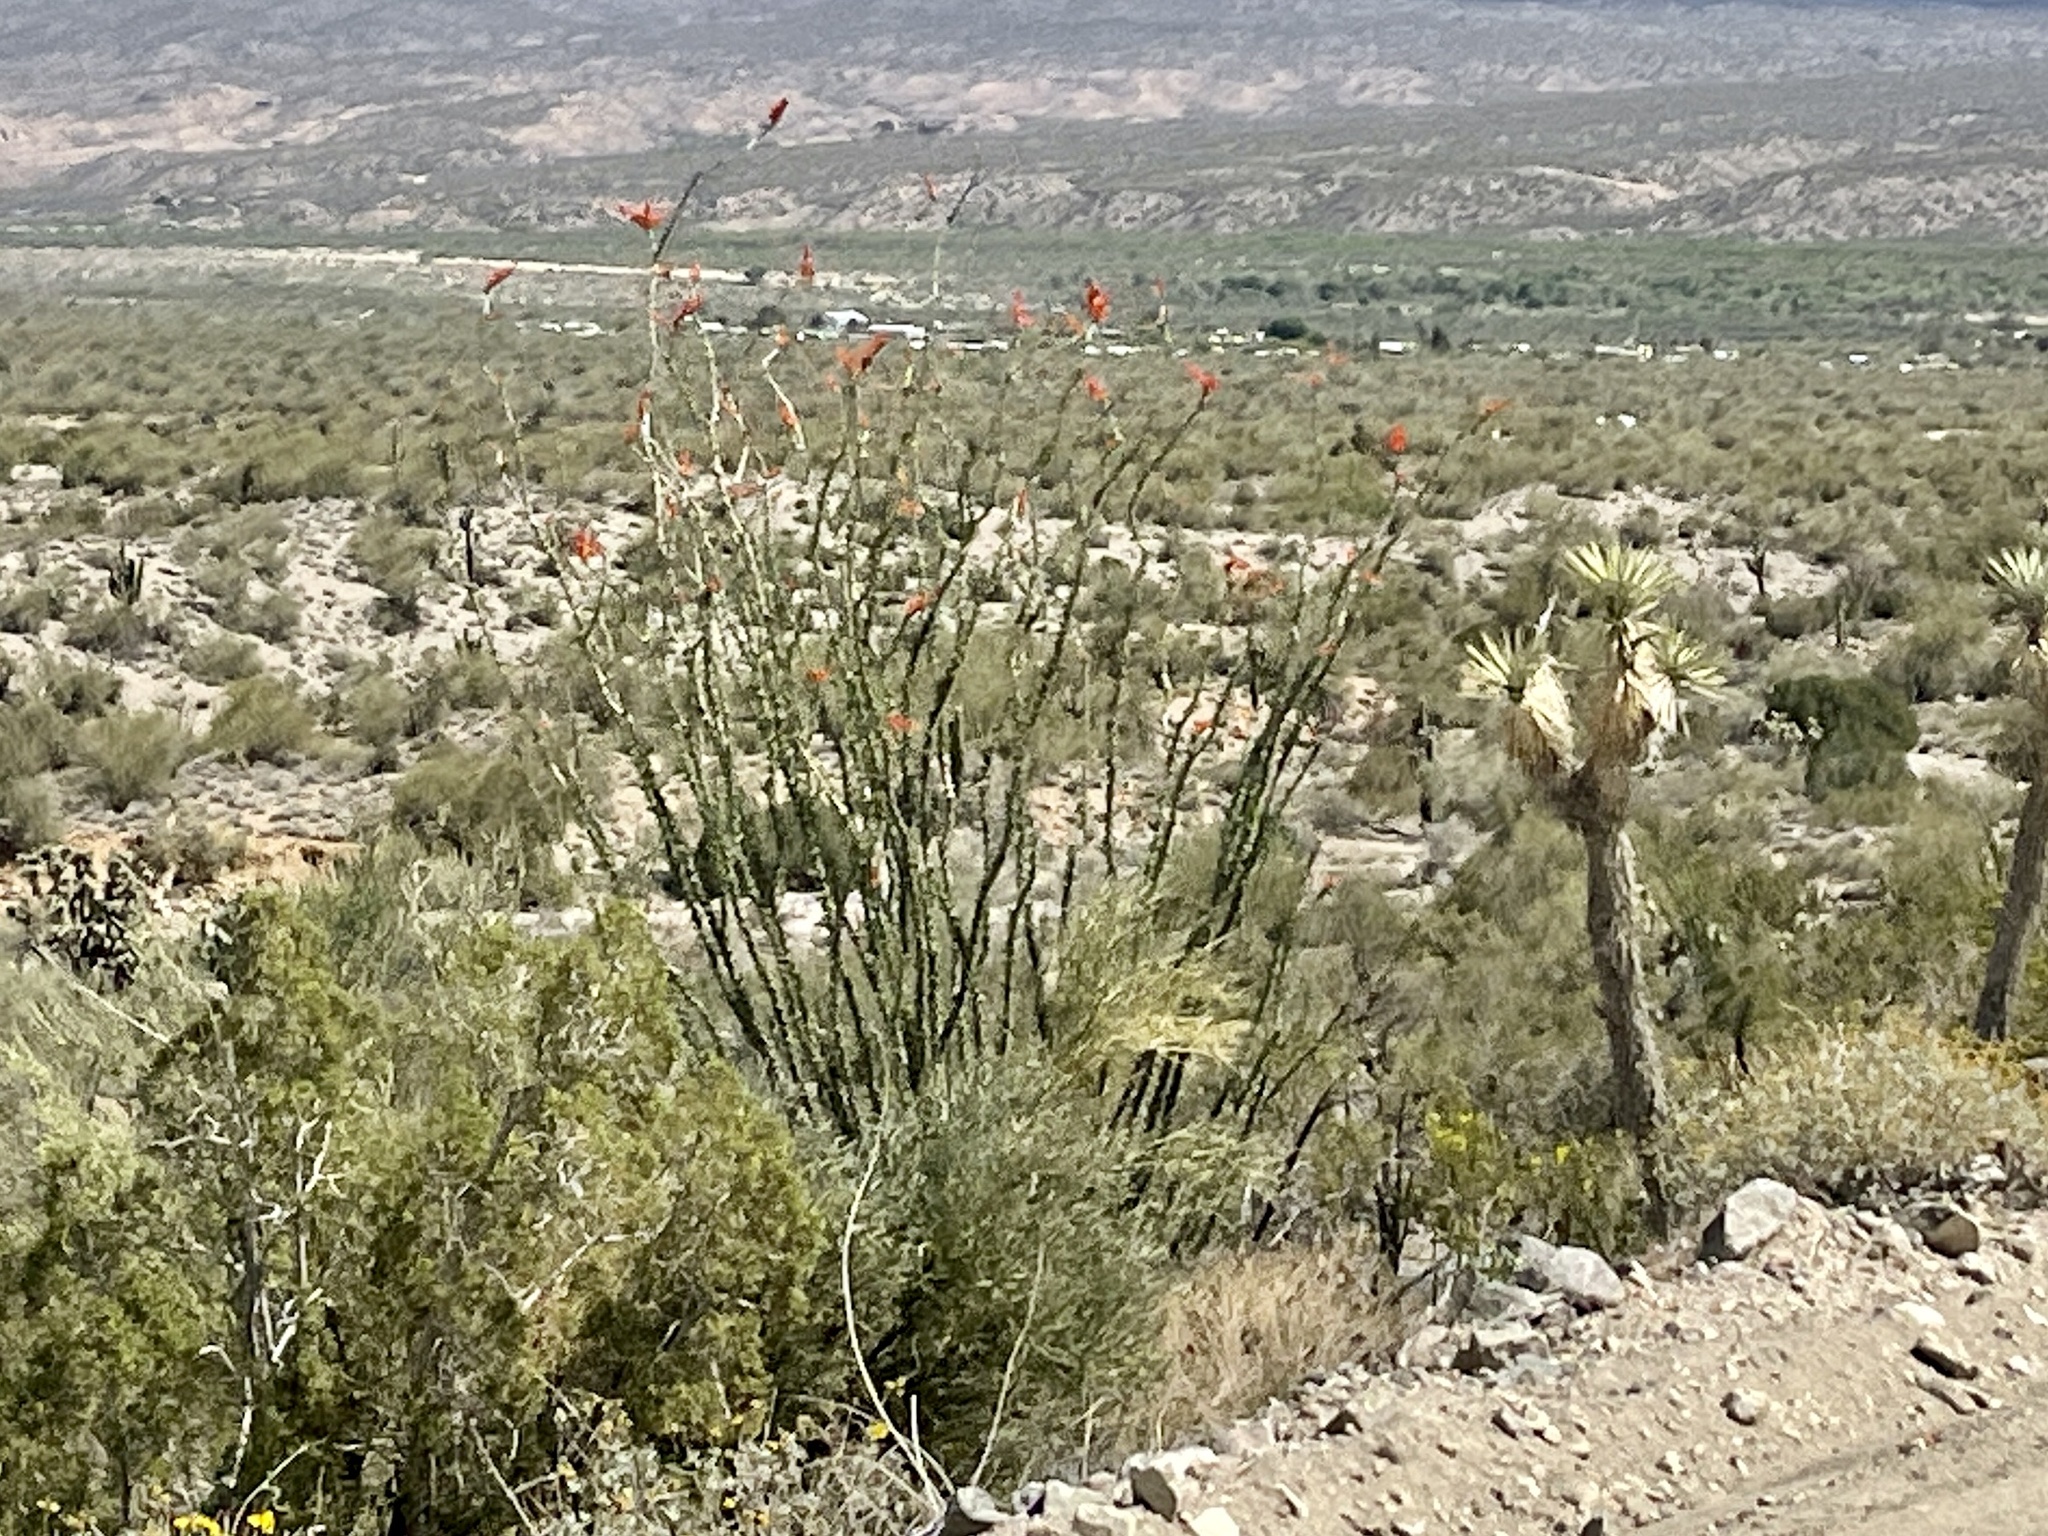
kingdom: Plantae
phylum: Tracheophyta
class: Magnoliopsida
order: Ericales
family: Fouquieriaceae
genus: Fouquieria
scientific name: Fouquieria splendens
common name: Vine-cactus
